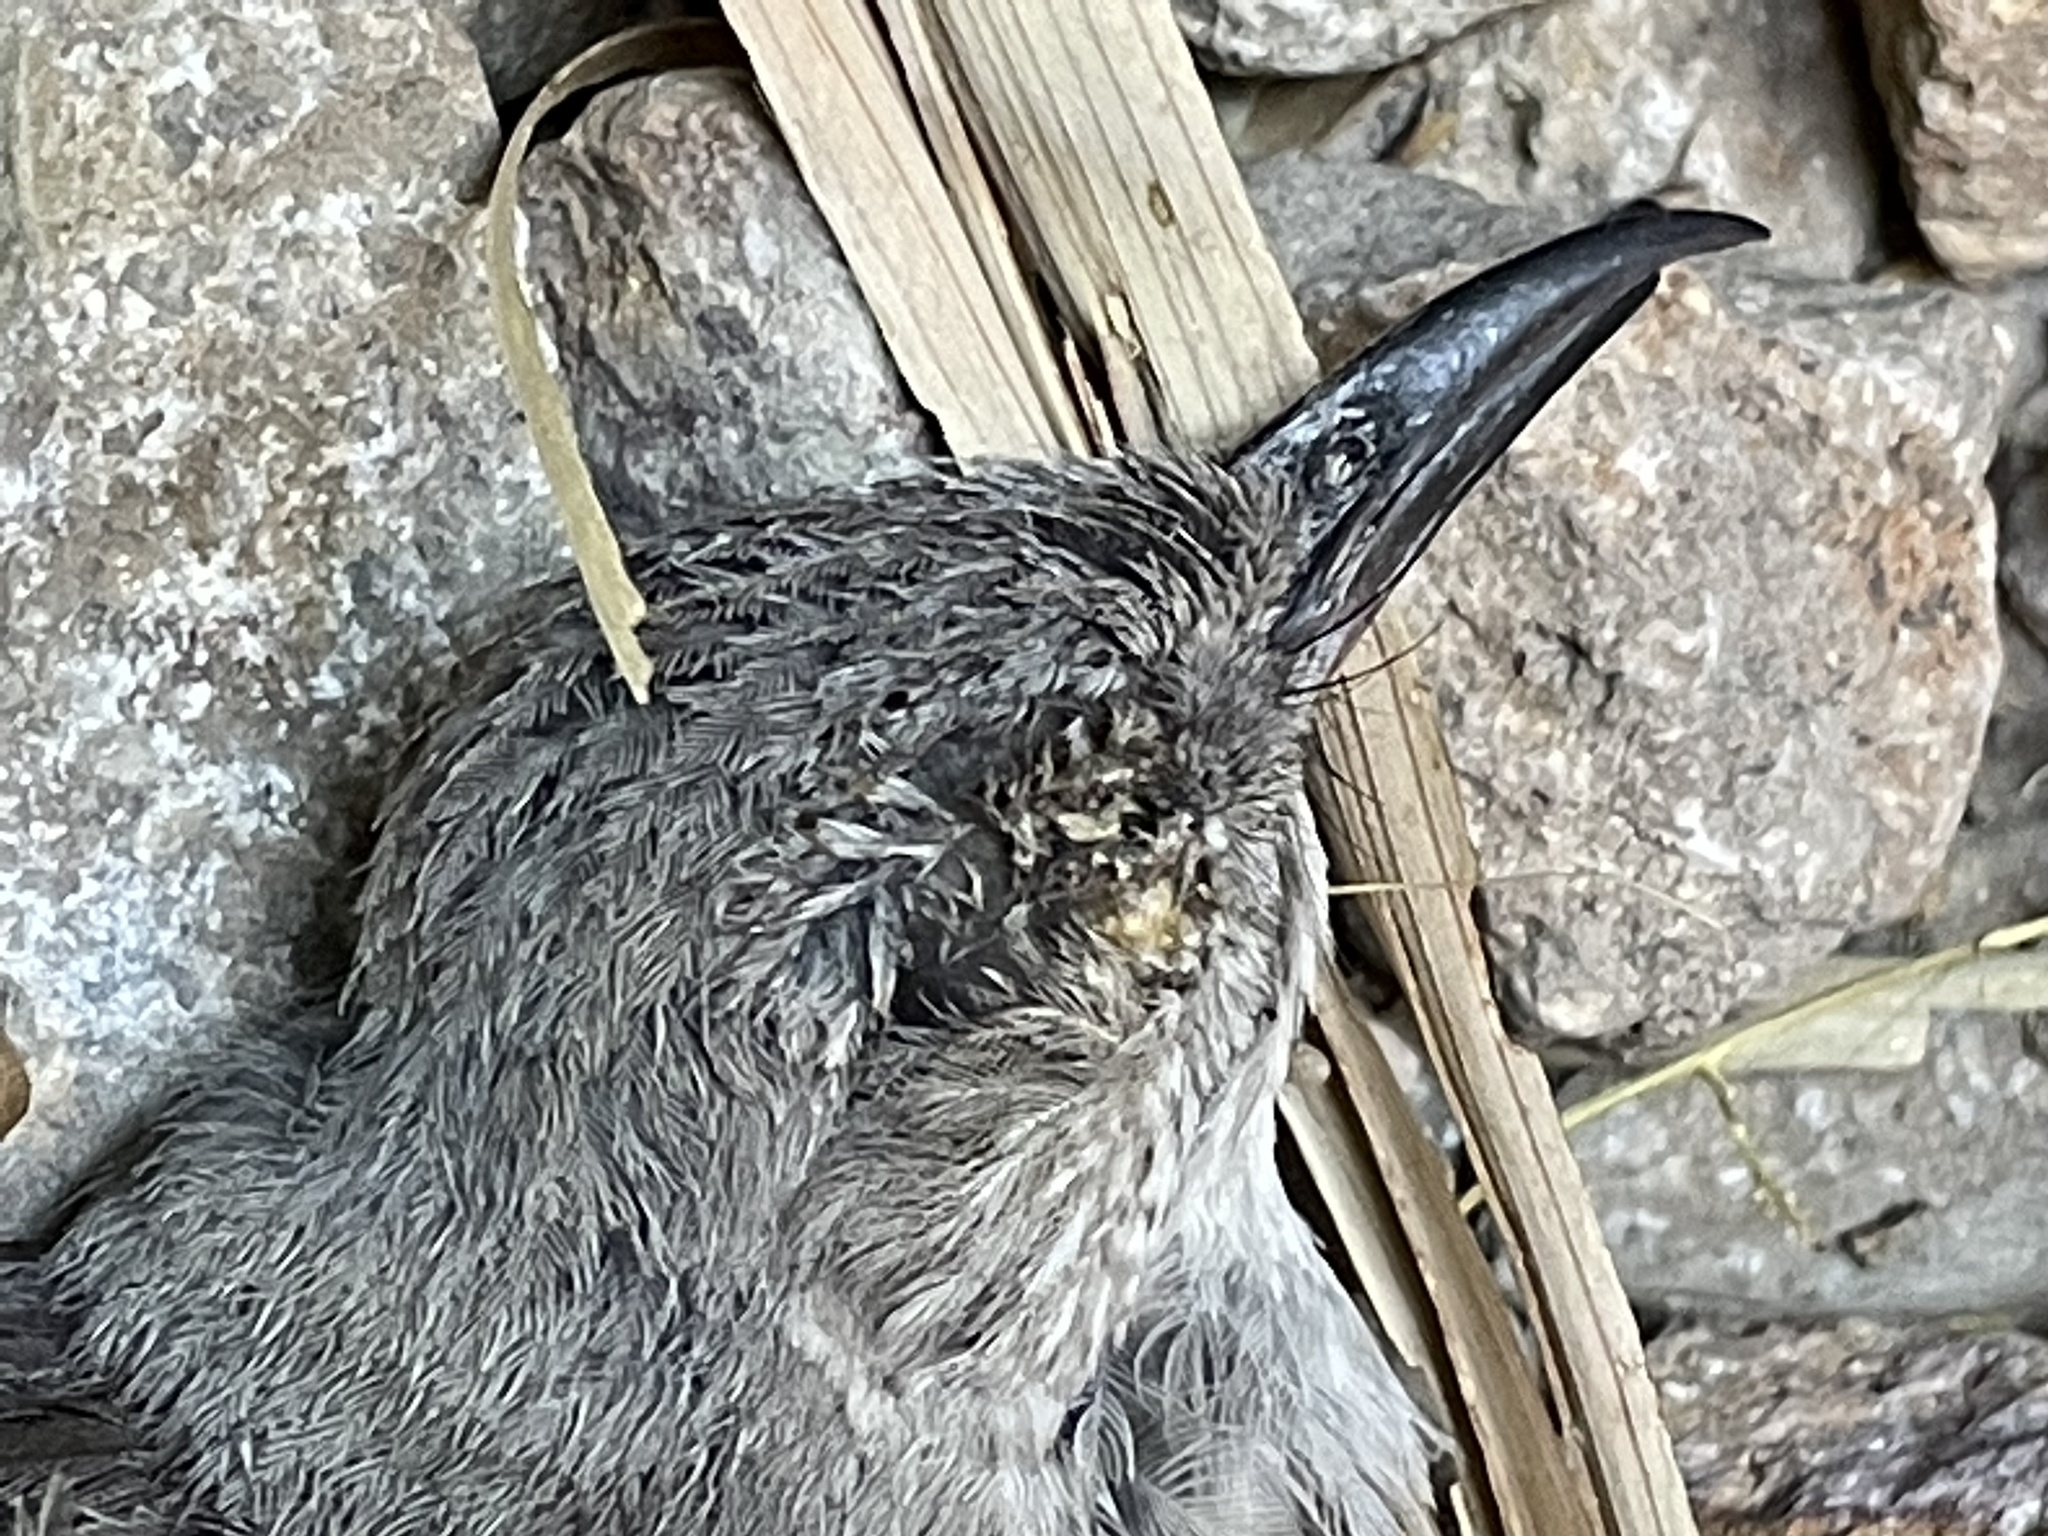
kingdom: Animalia
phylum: Chordata
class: Aves
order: Passeriformes
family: Mimidae
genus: Mimus
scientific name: Mimus polyglottos
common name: Northern mockingbird
